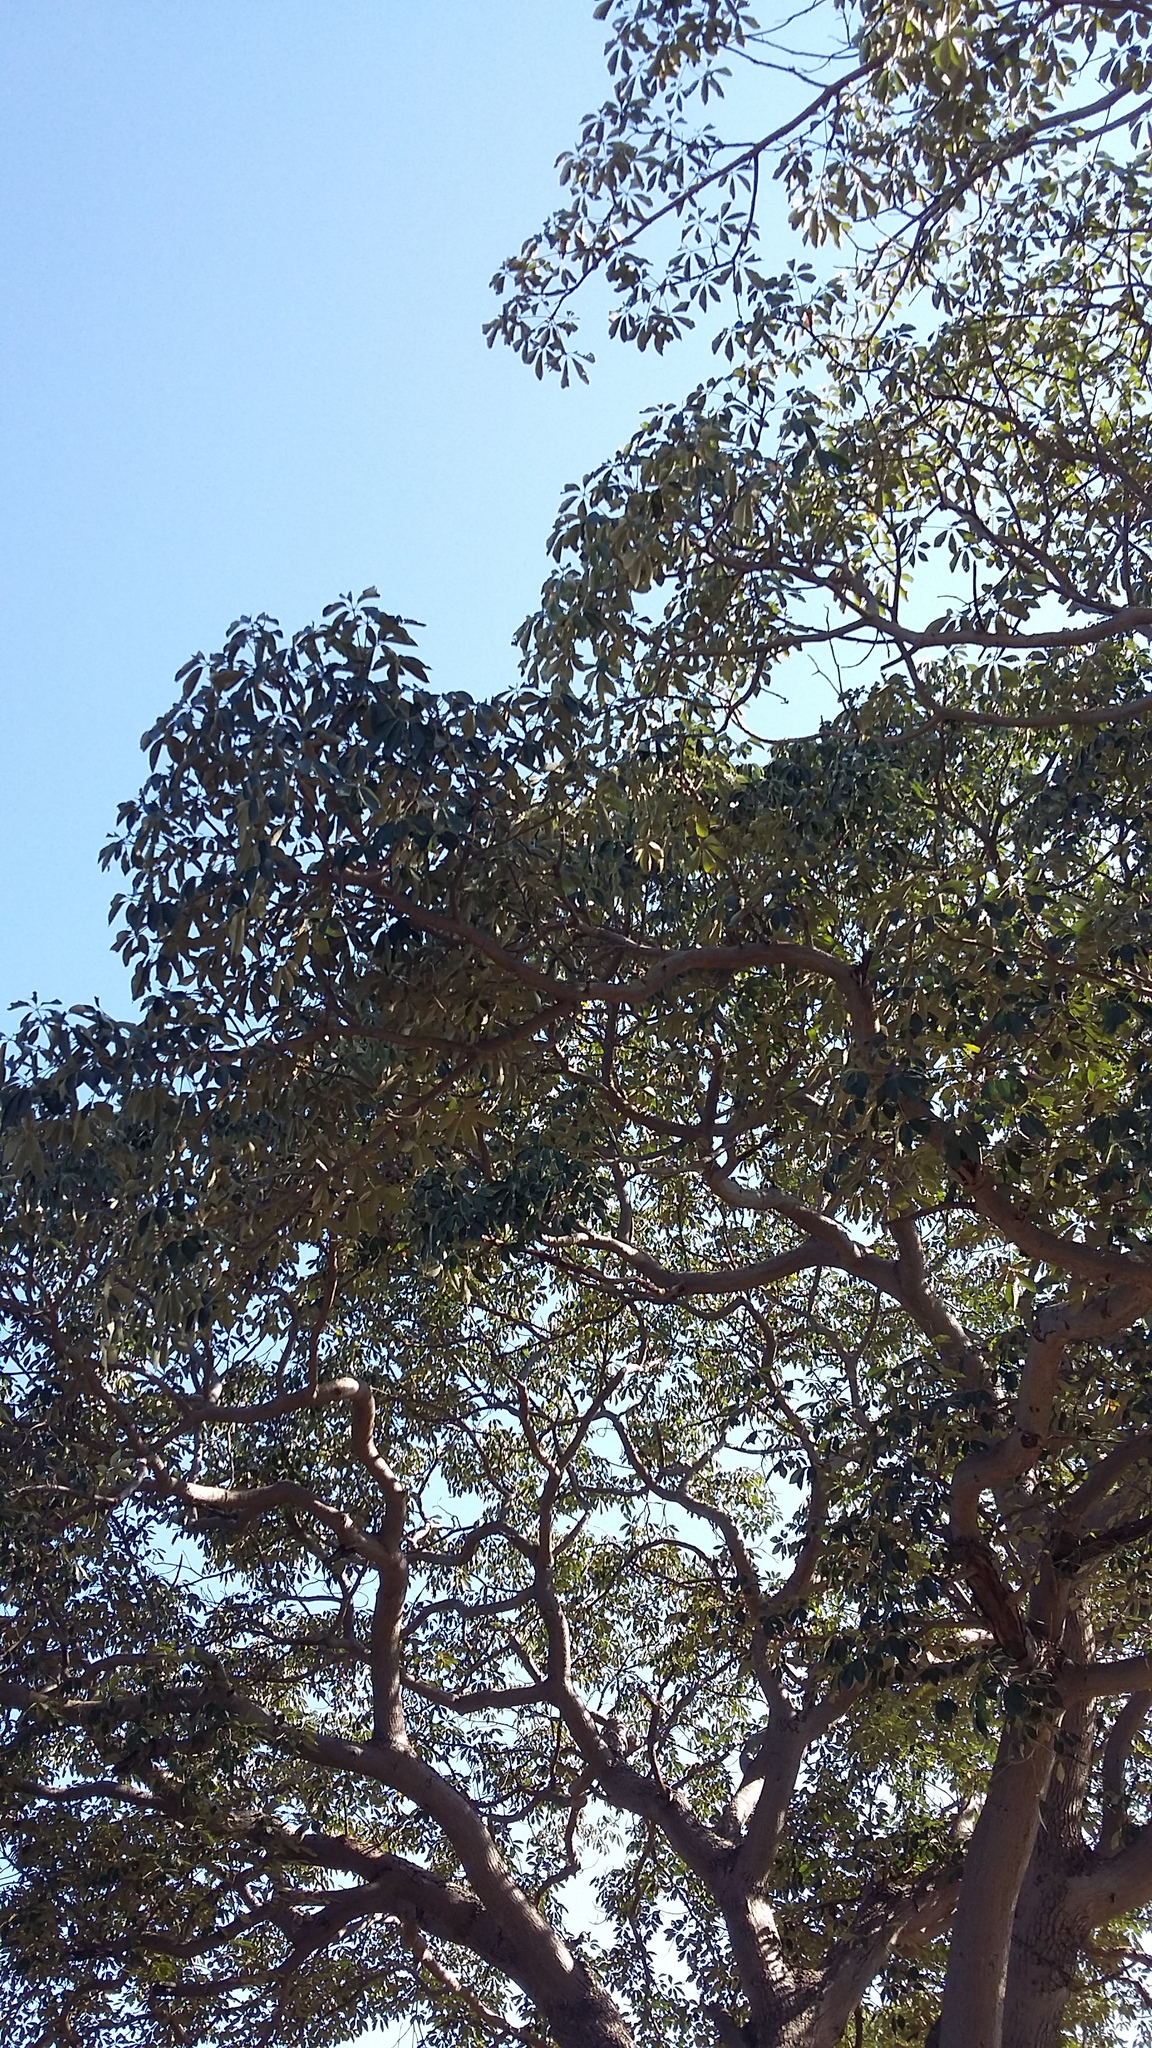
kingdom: Plantae
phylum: Tracheophyta
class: Magnoliopsida
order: Malpighiales
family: Euphorbiaceae
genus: Schinziophyton
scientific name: Schinziophyton rautanenii
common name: Manketti
